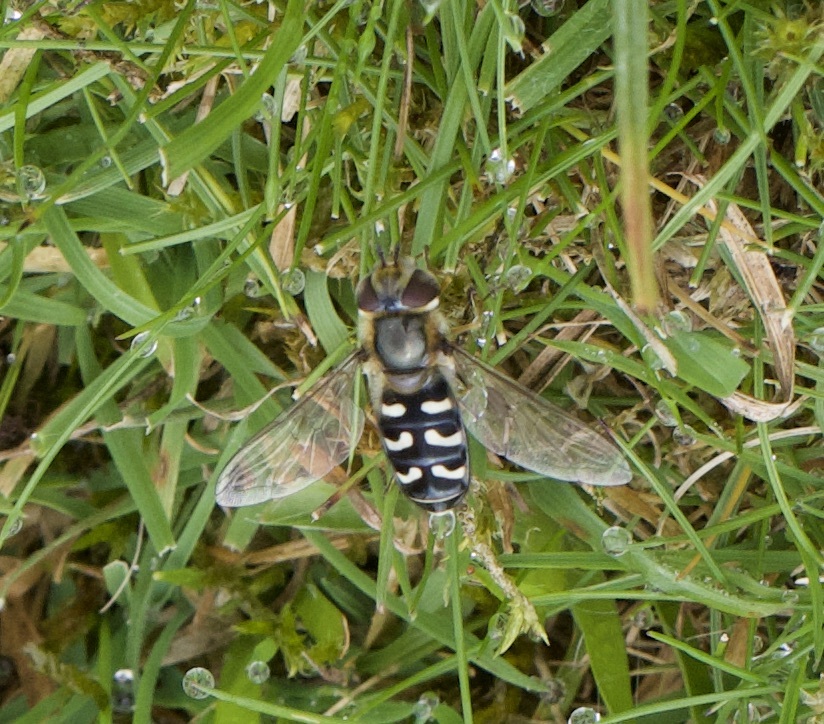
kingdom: Animalia
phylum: Arthropoda
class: Insecta
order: Diptera
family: Syrphidae
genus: Scaeva
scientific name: Scaeva pyrastri
